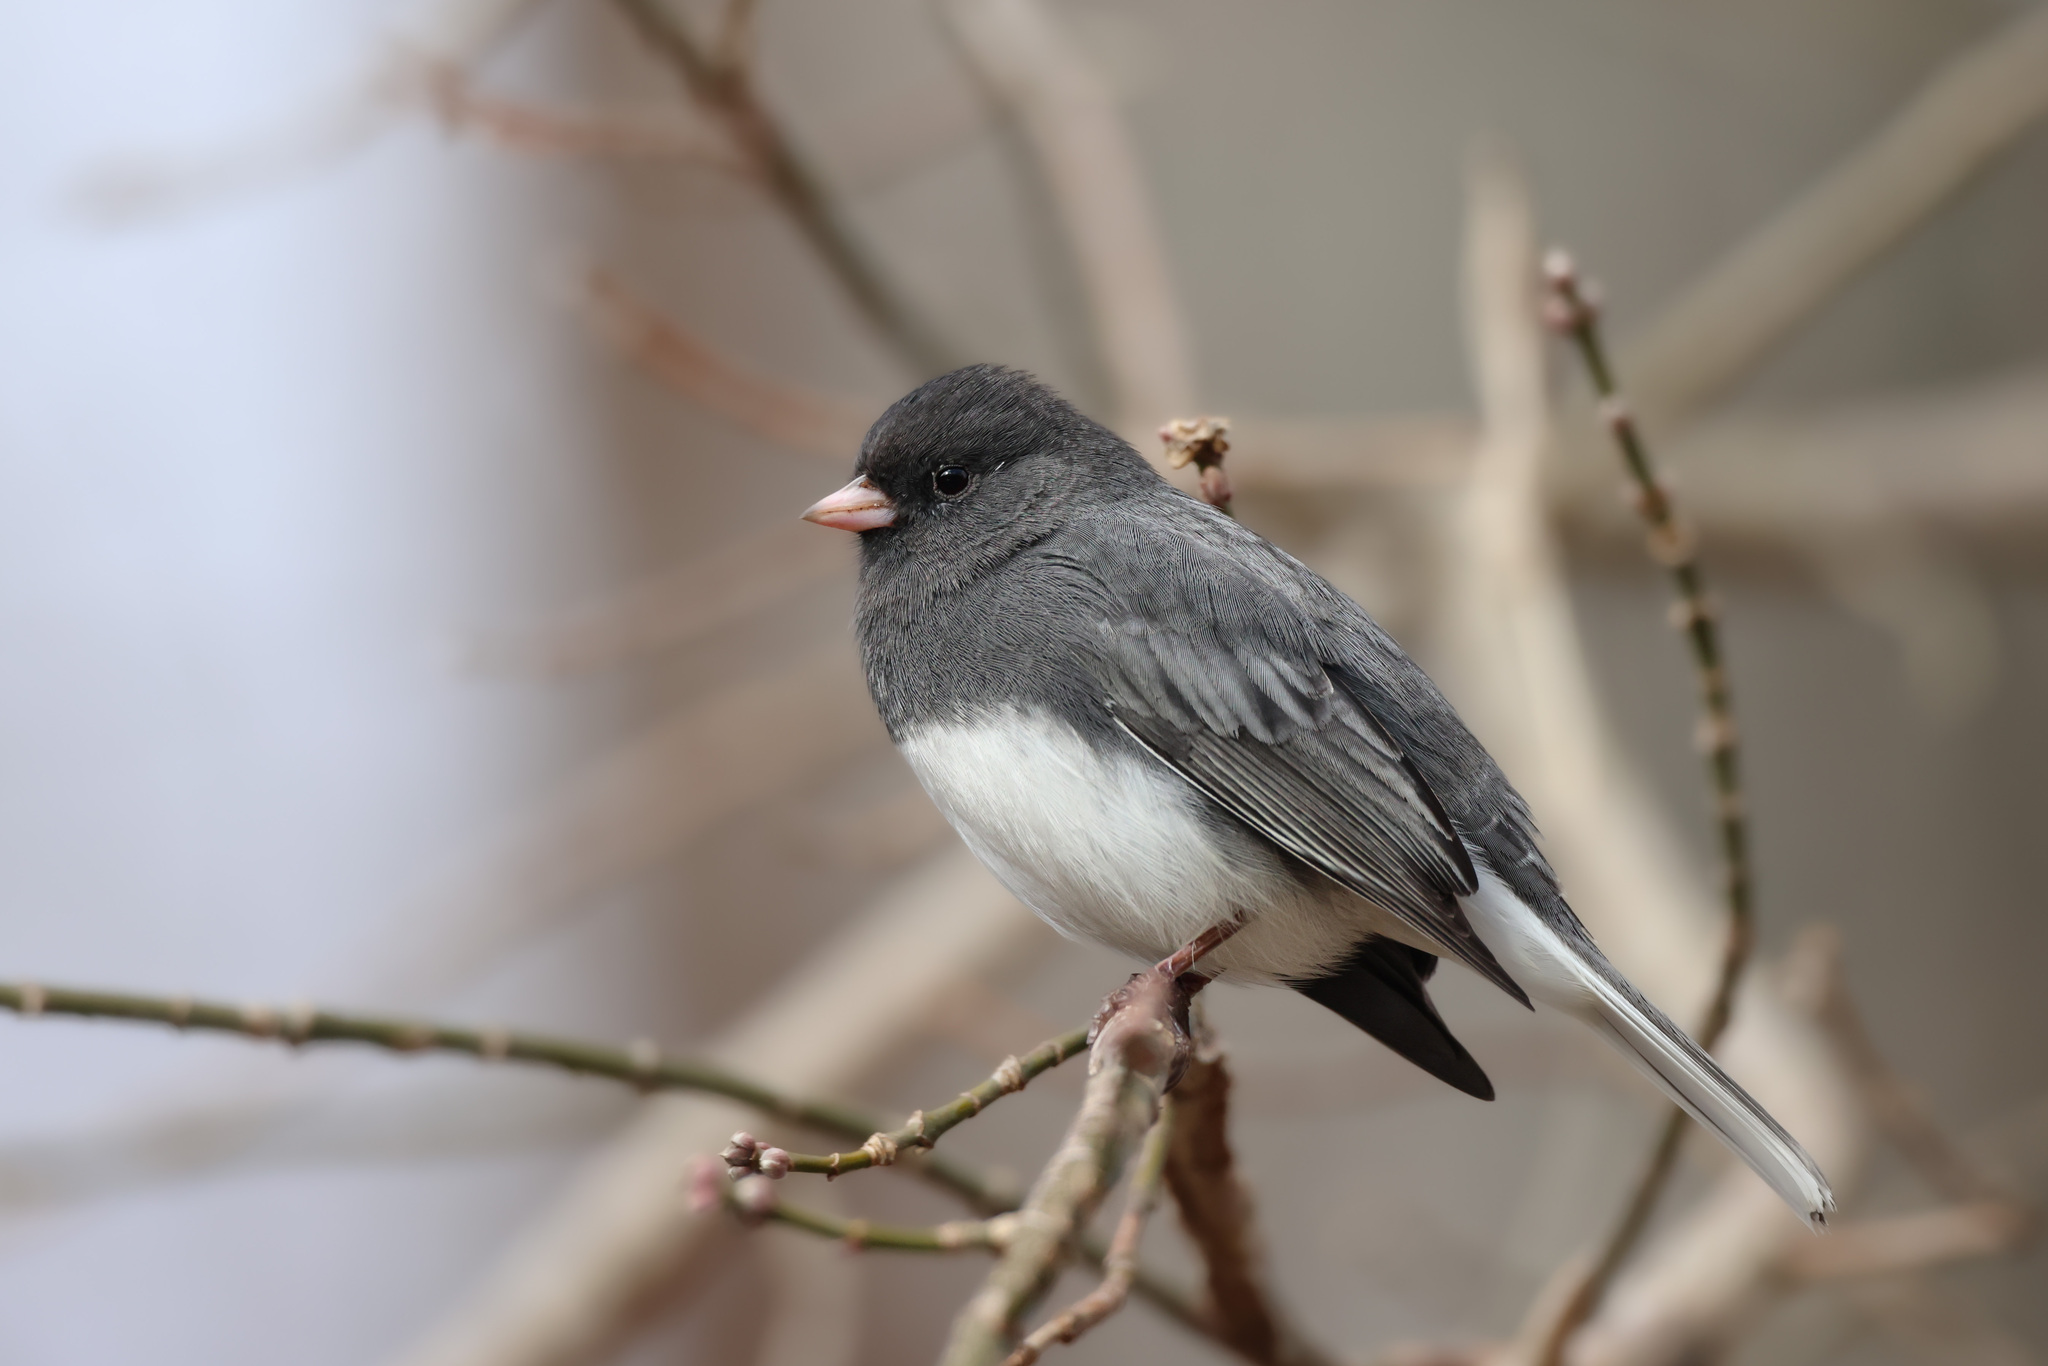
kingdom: Animalia
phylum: Chordata
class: Aves
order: Passeriformes
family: Passerellidae
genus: Junco
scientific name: Junco hyemalis
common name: Dark-eyed junco
